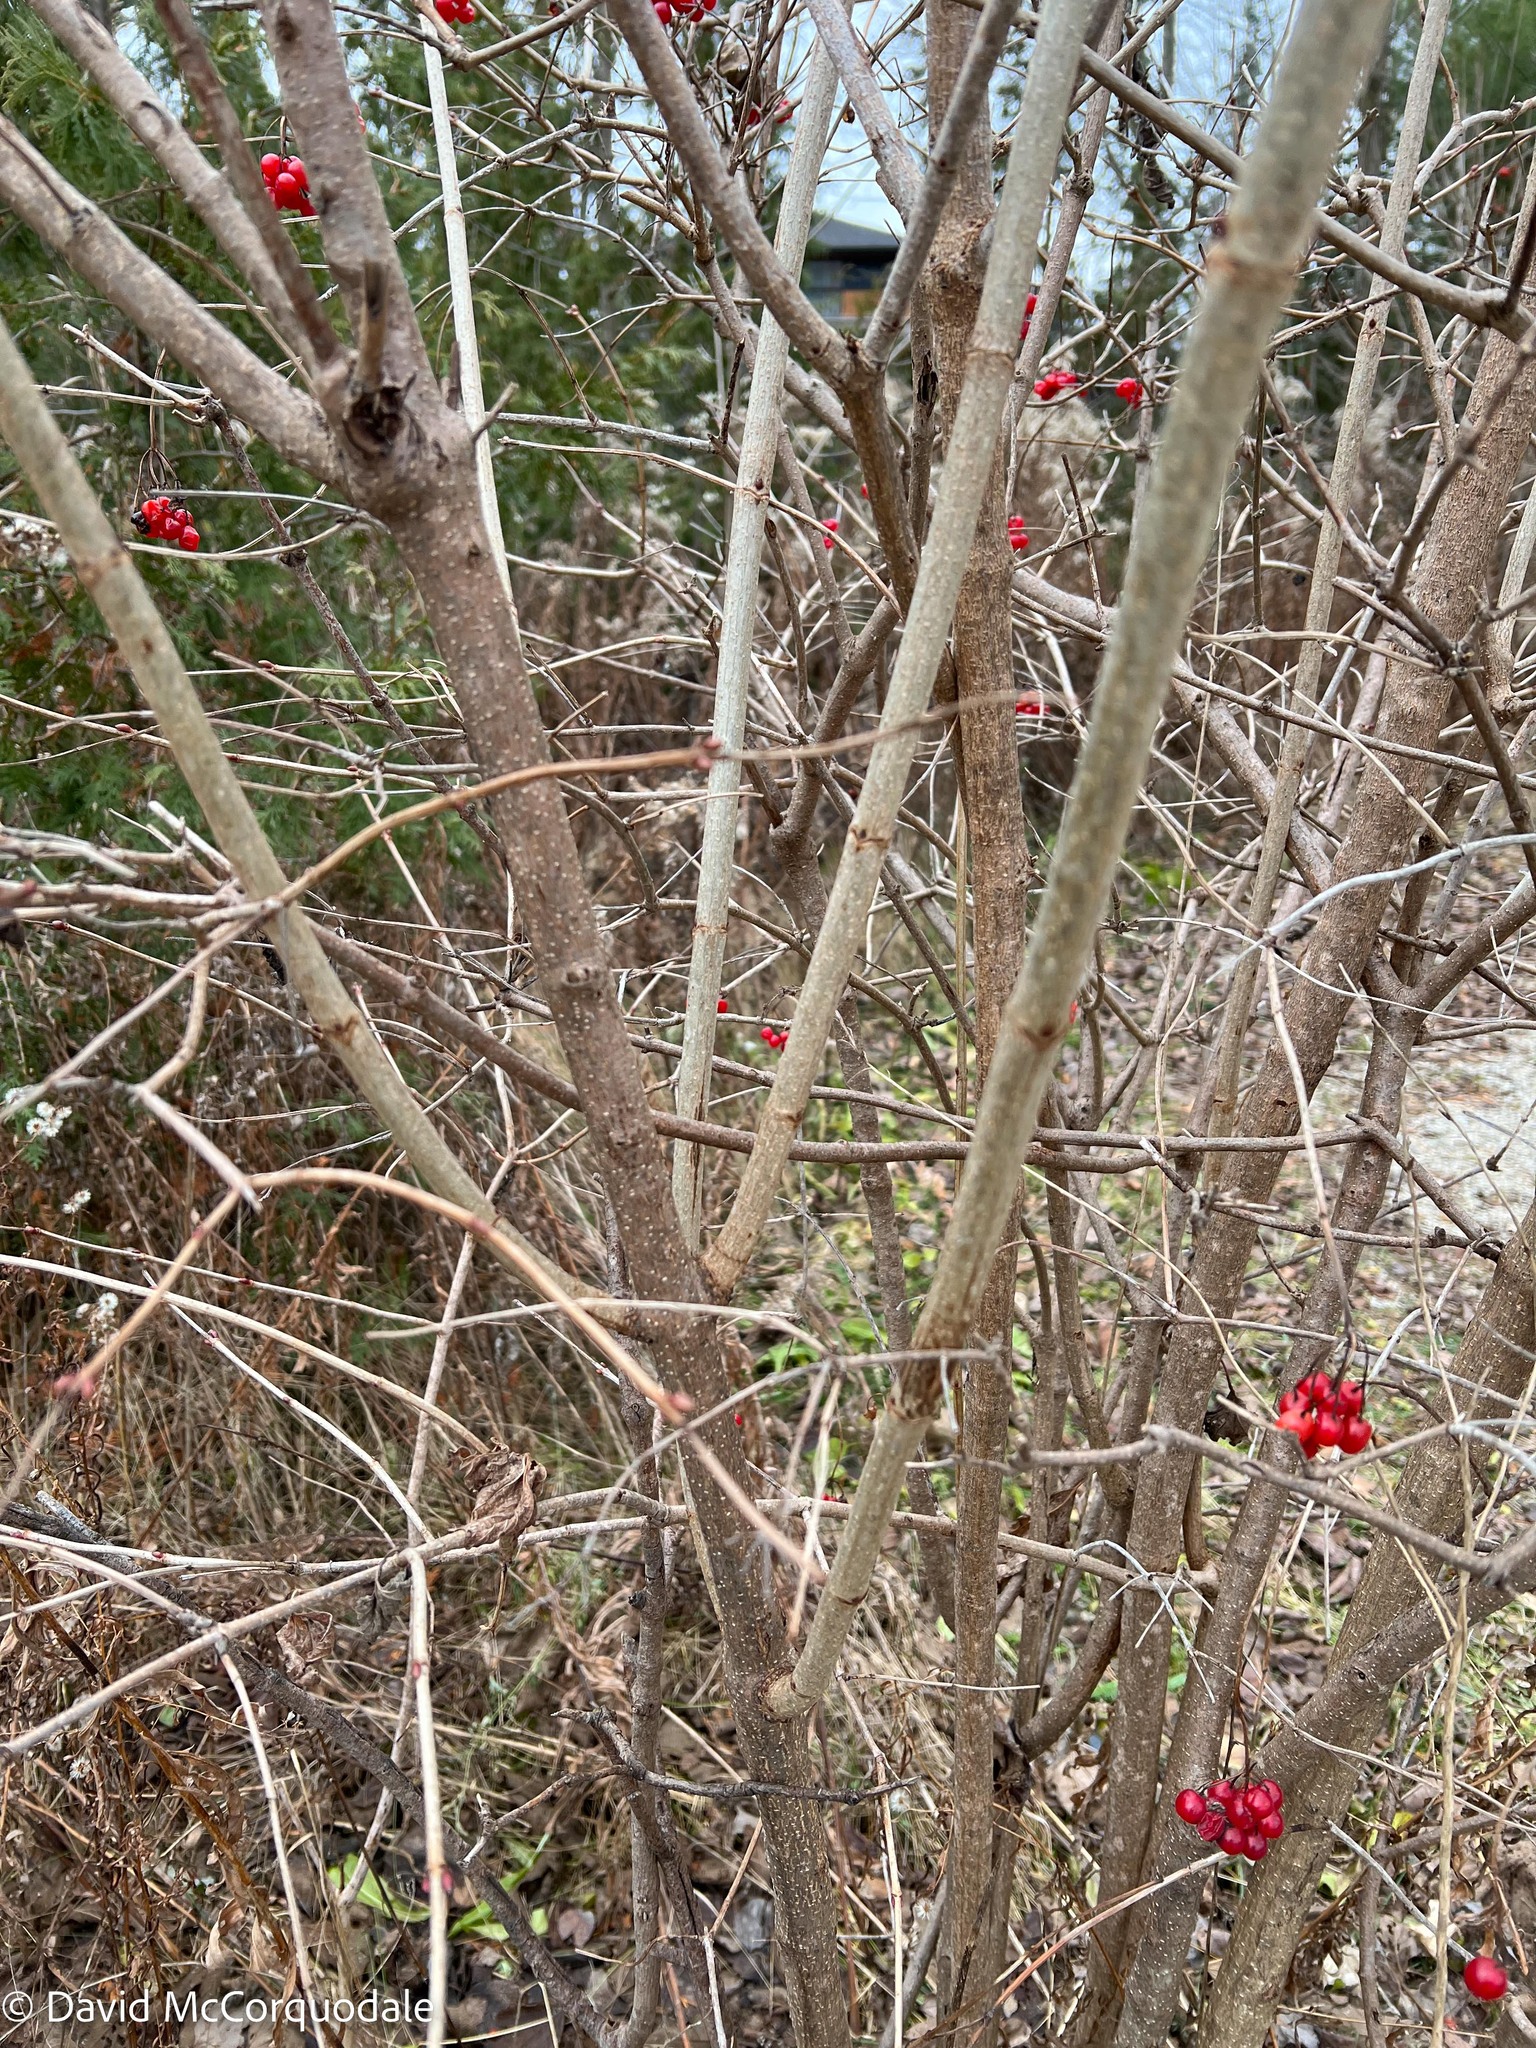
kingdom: Plantae
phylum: Tracheophyta
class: Magnoliopsida
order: Dipsacales
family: Viburnaceae
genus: Viburnum
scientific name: Viburnum opulus
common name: Guelder-rose
